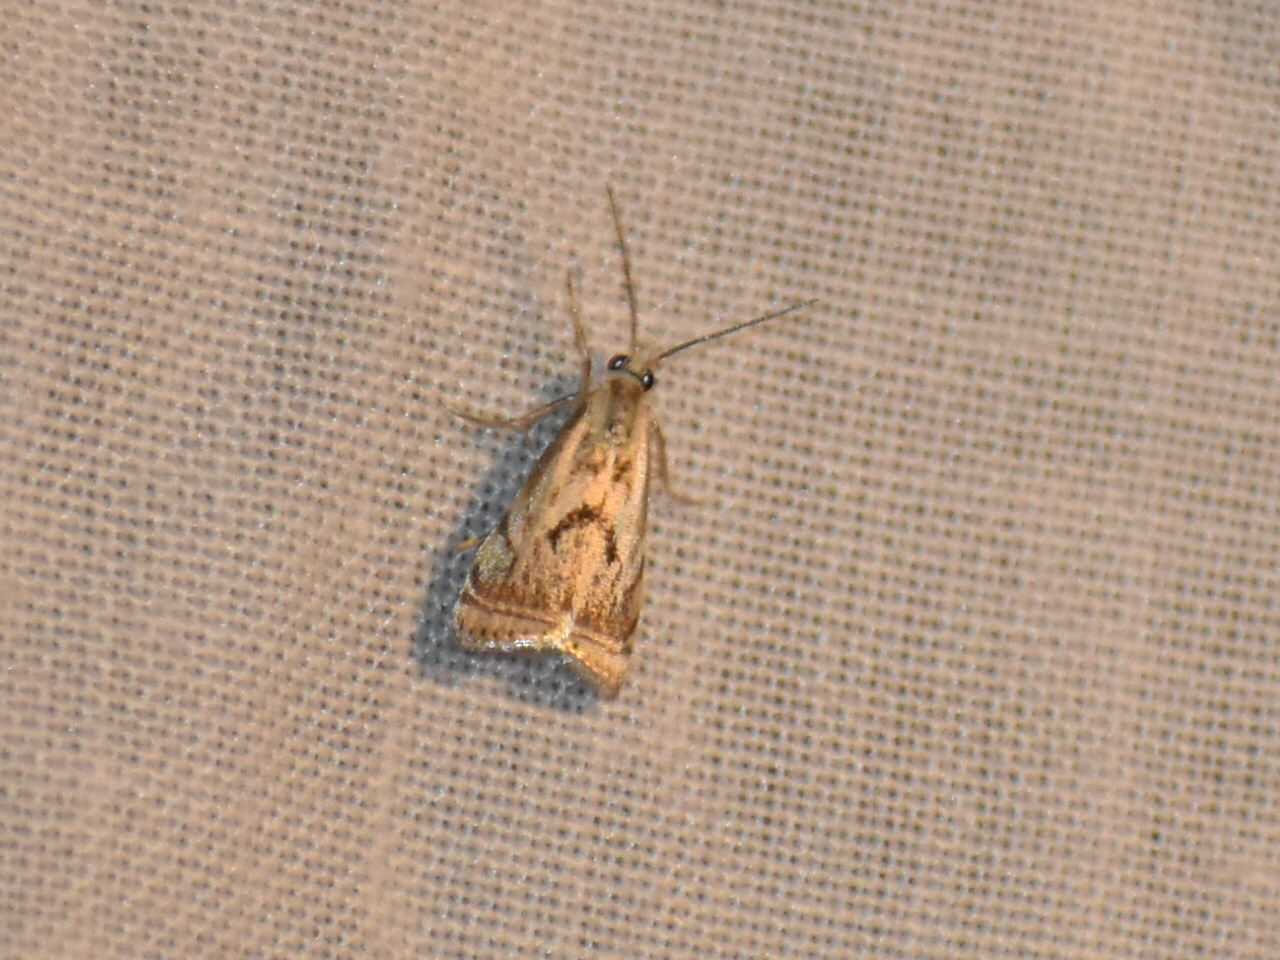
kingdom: Animalia
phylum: Arthropoda
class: Insecta
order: Lepidoptera
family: Crambidae
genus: Microcrambus
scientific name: Microcrambus elegans
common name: Elegant grass-veneer
